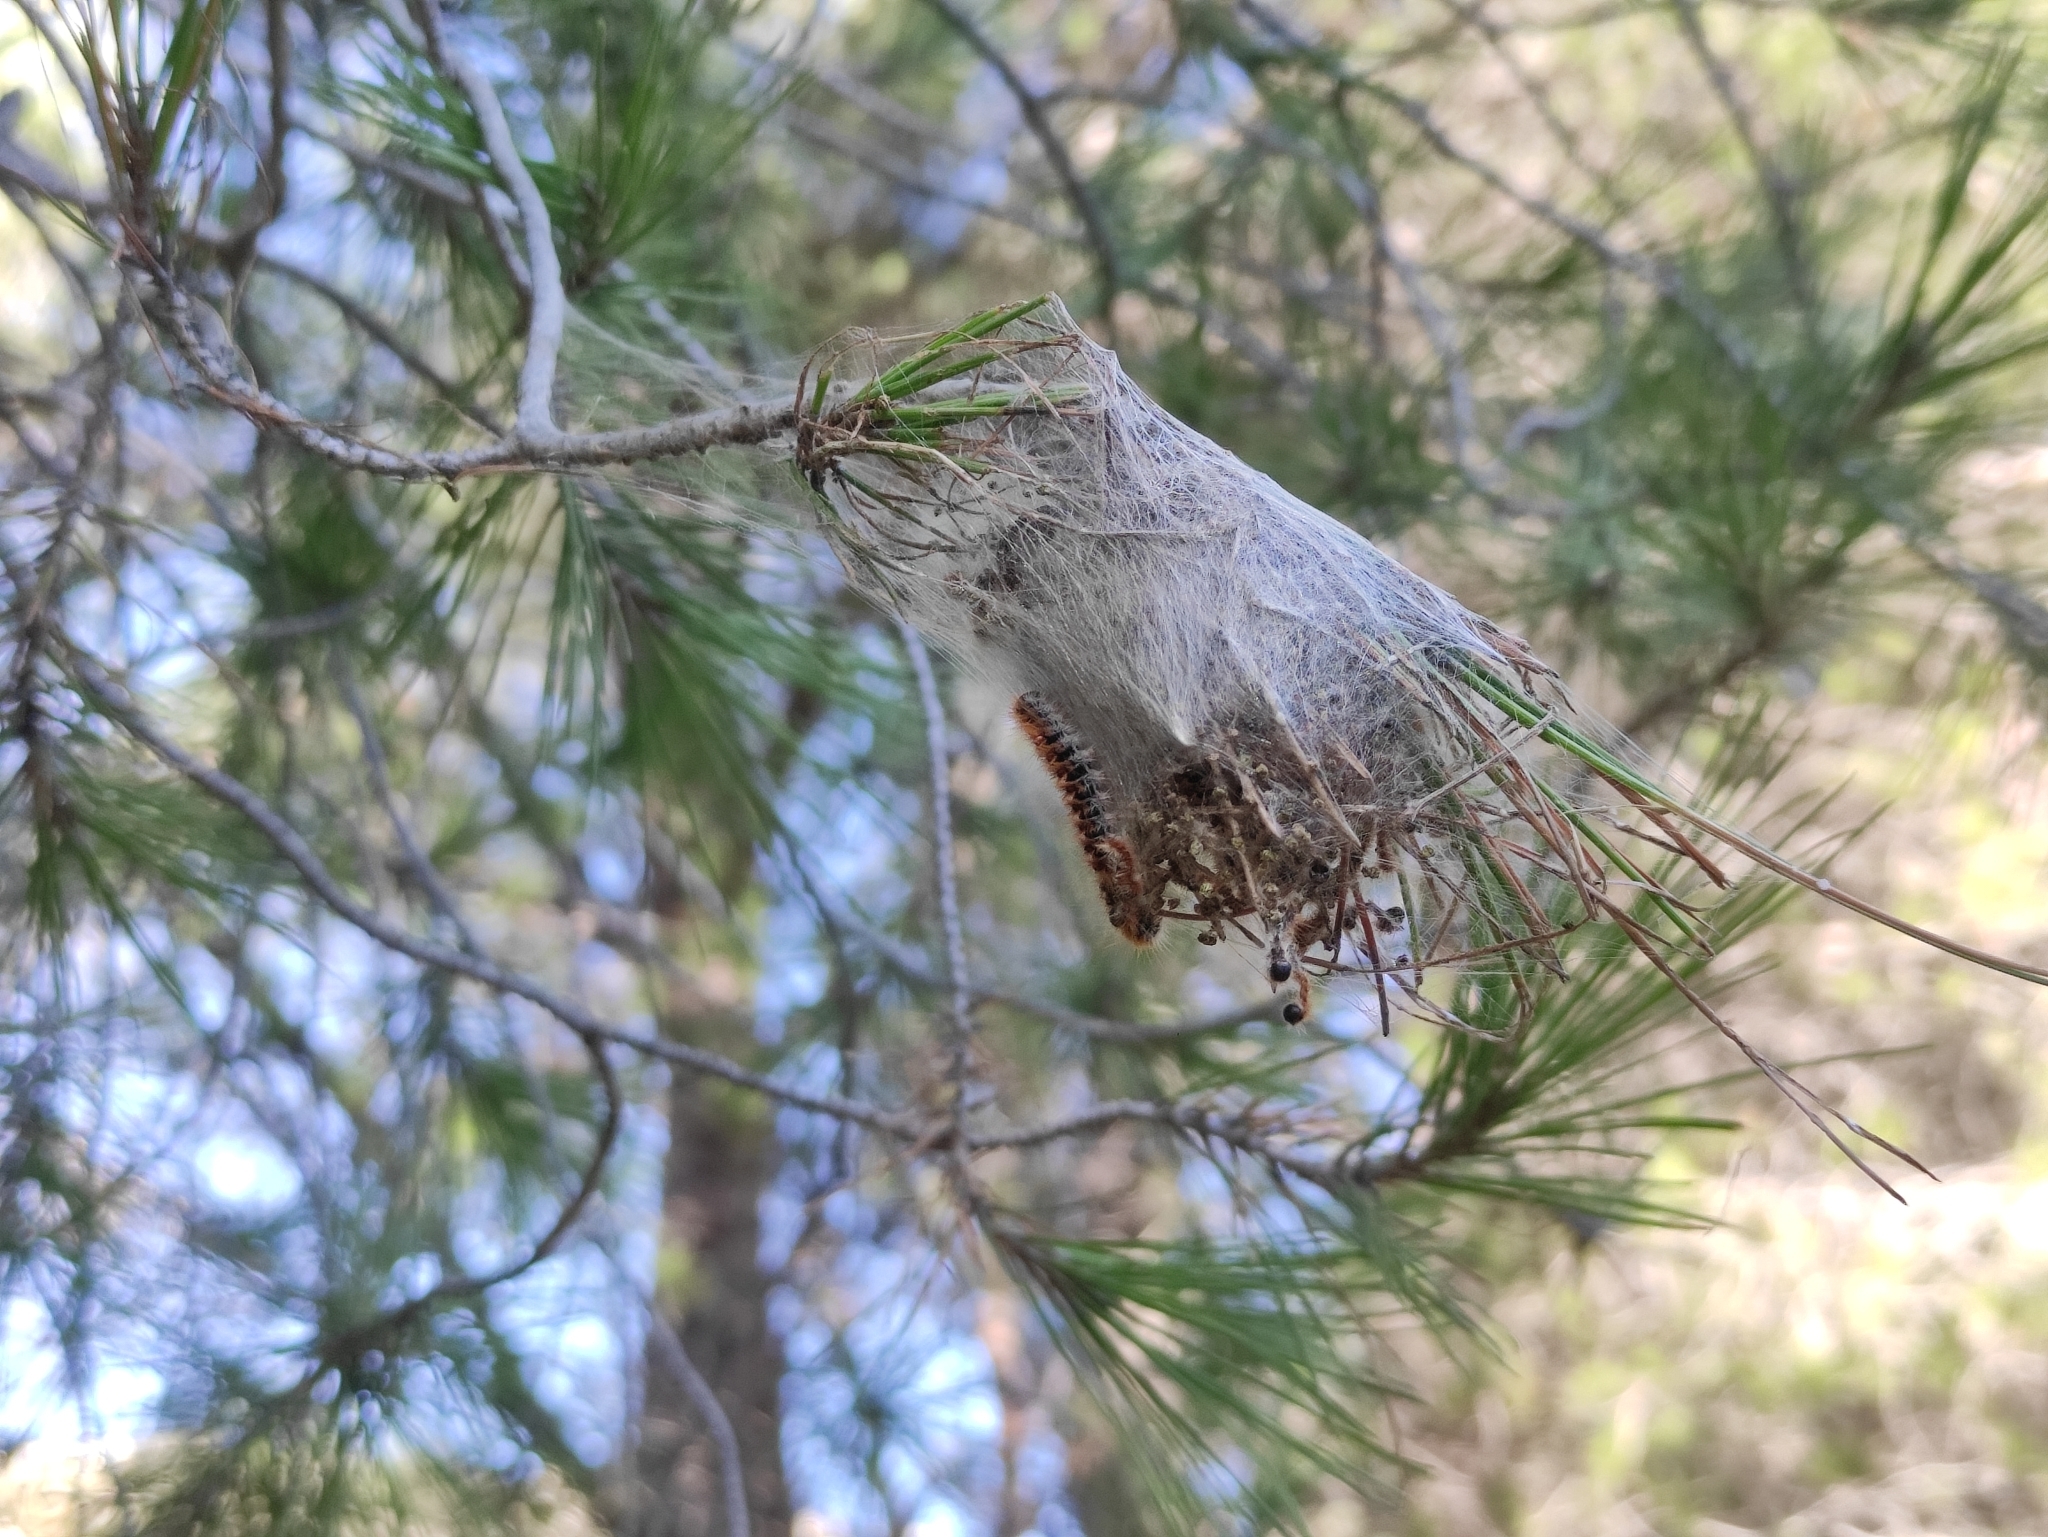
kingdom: Animalia
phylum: Arthropoda
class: Insecta
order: Lepidoptera
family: Notodontidae
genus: Thaumetopoea
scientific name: Thaumetopoea pityocampa
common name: Pine processionary
